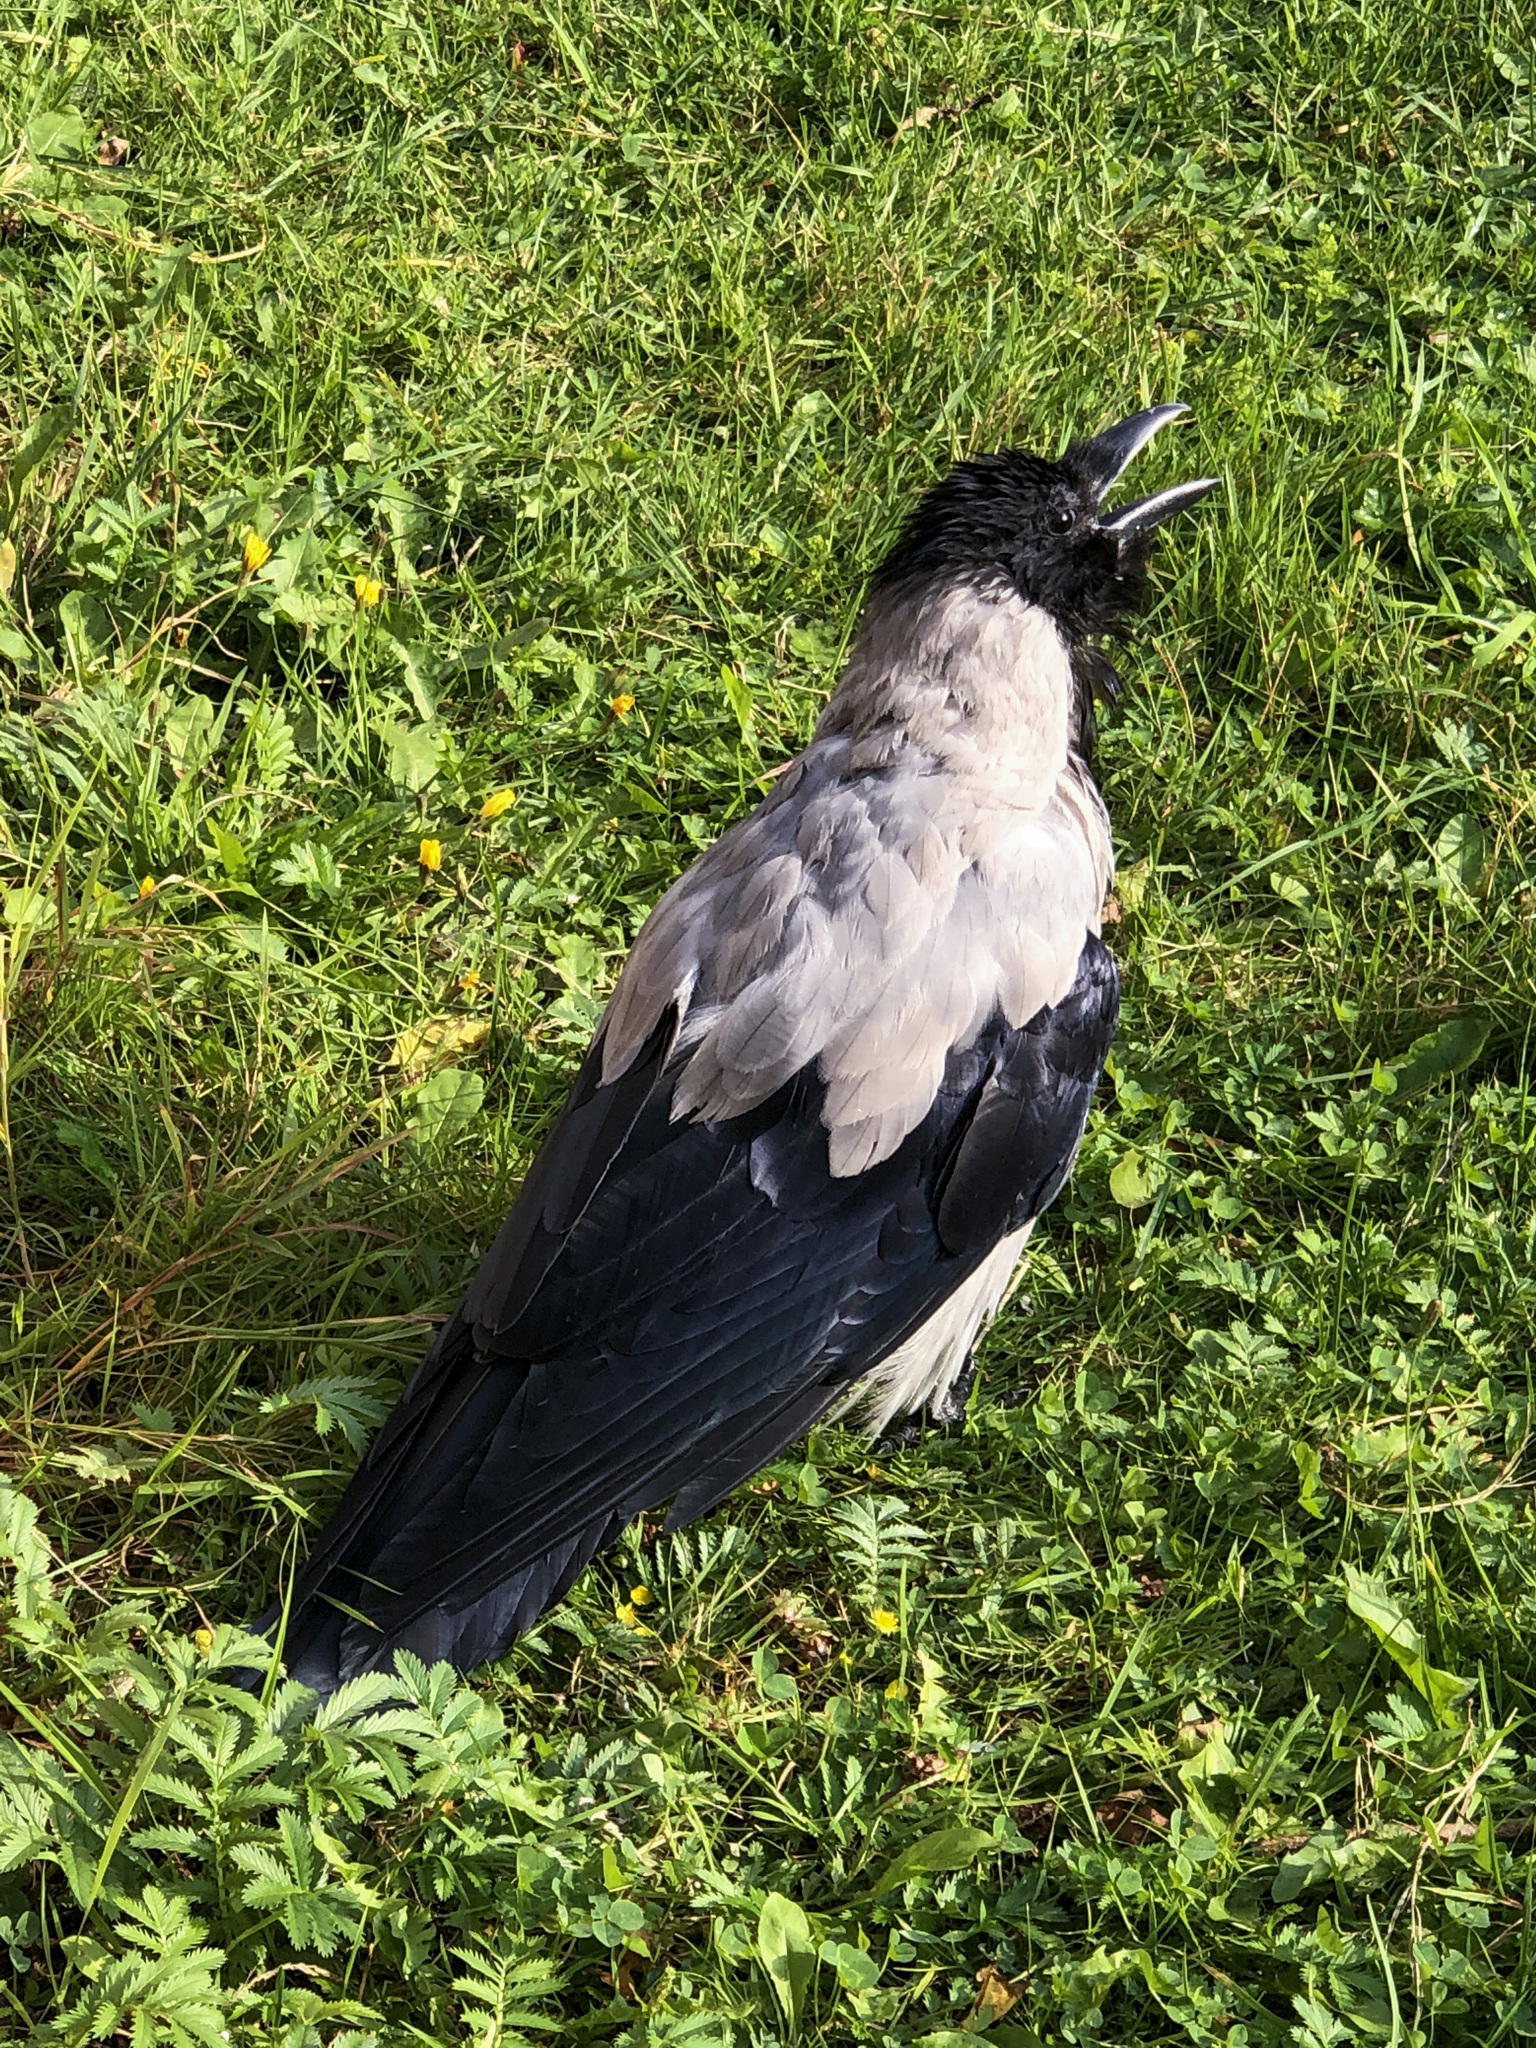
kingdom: Animalia
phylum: Chordata
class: Aves
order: Passeriformes
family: Corvidae
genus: Corvus
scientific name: Corvus cornix
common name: Hooded crow
